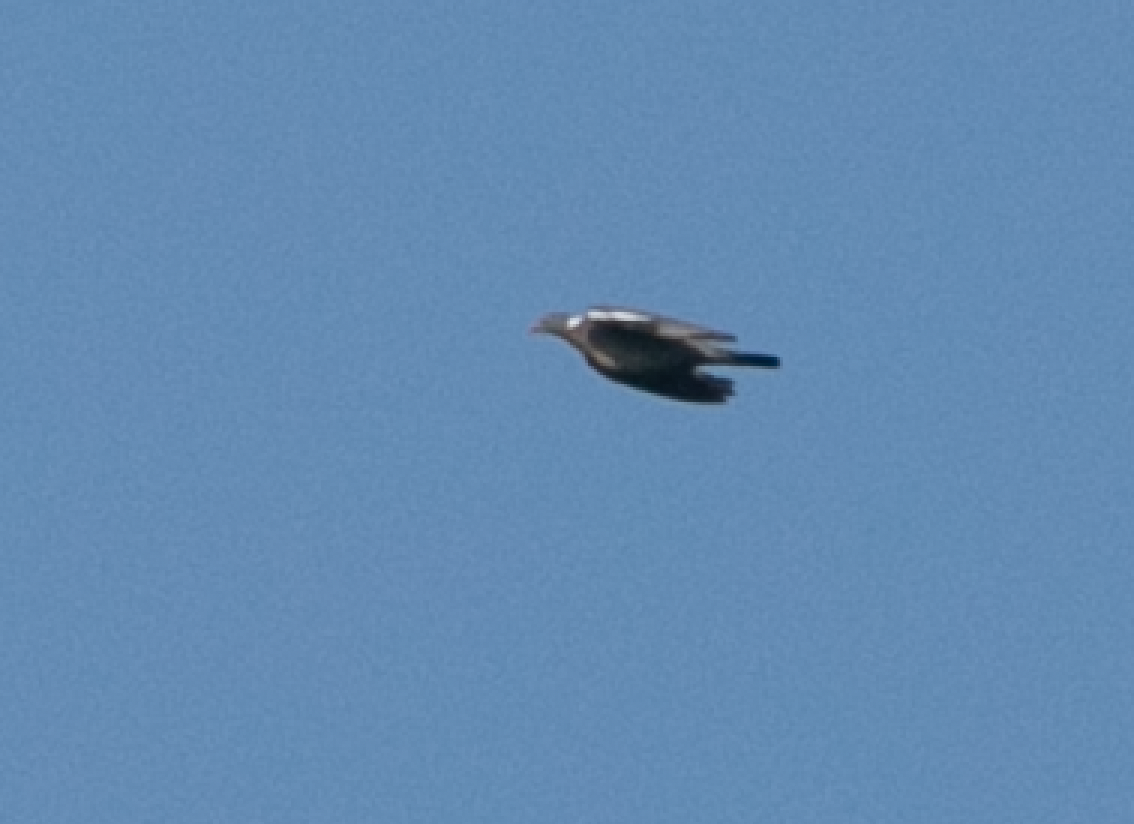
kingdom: Animalia
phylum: Chordata
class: Aves
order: Columbiformes
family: Columbidae
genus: Columba
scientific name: Columba palumbus
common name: Common wood pigeon
